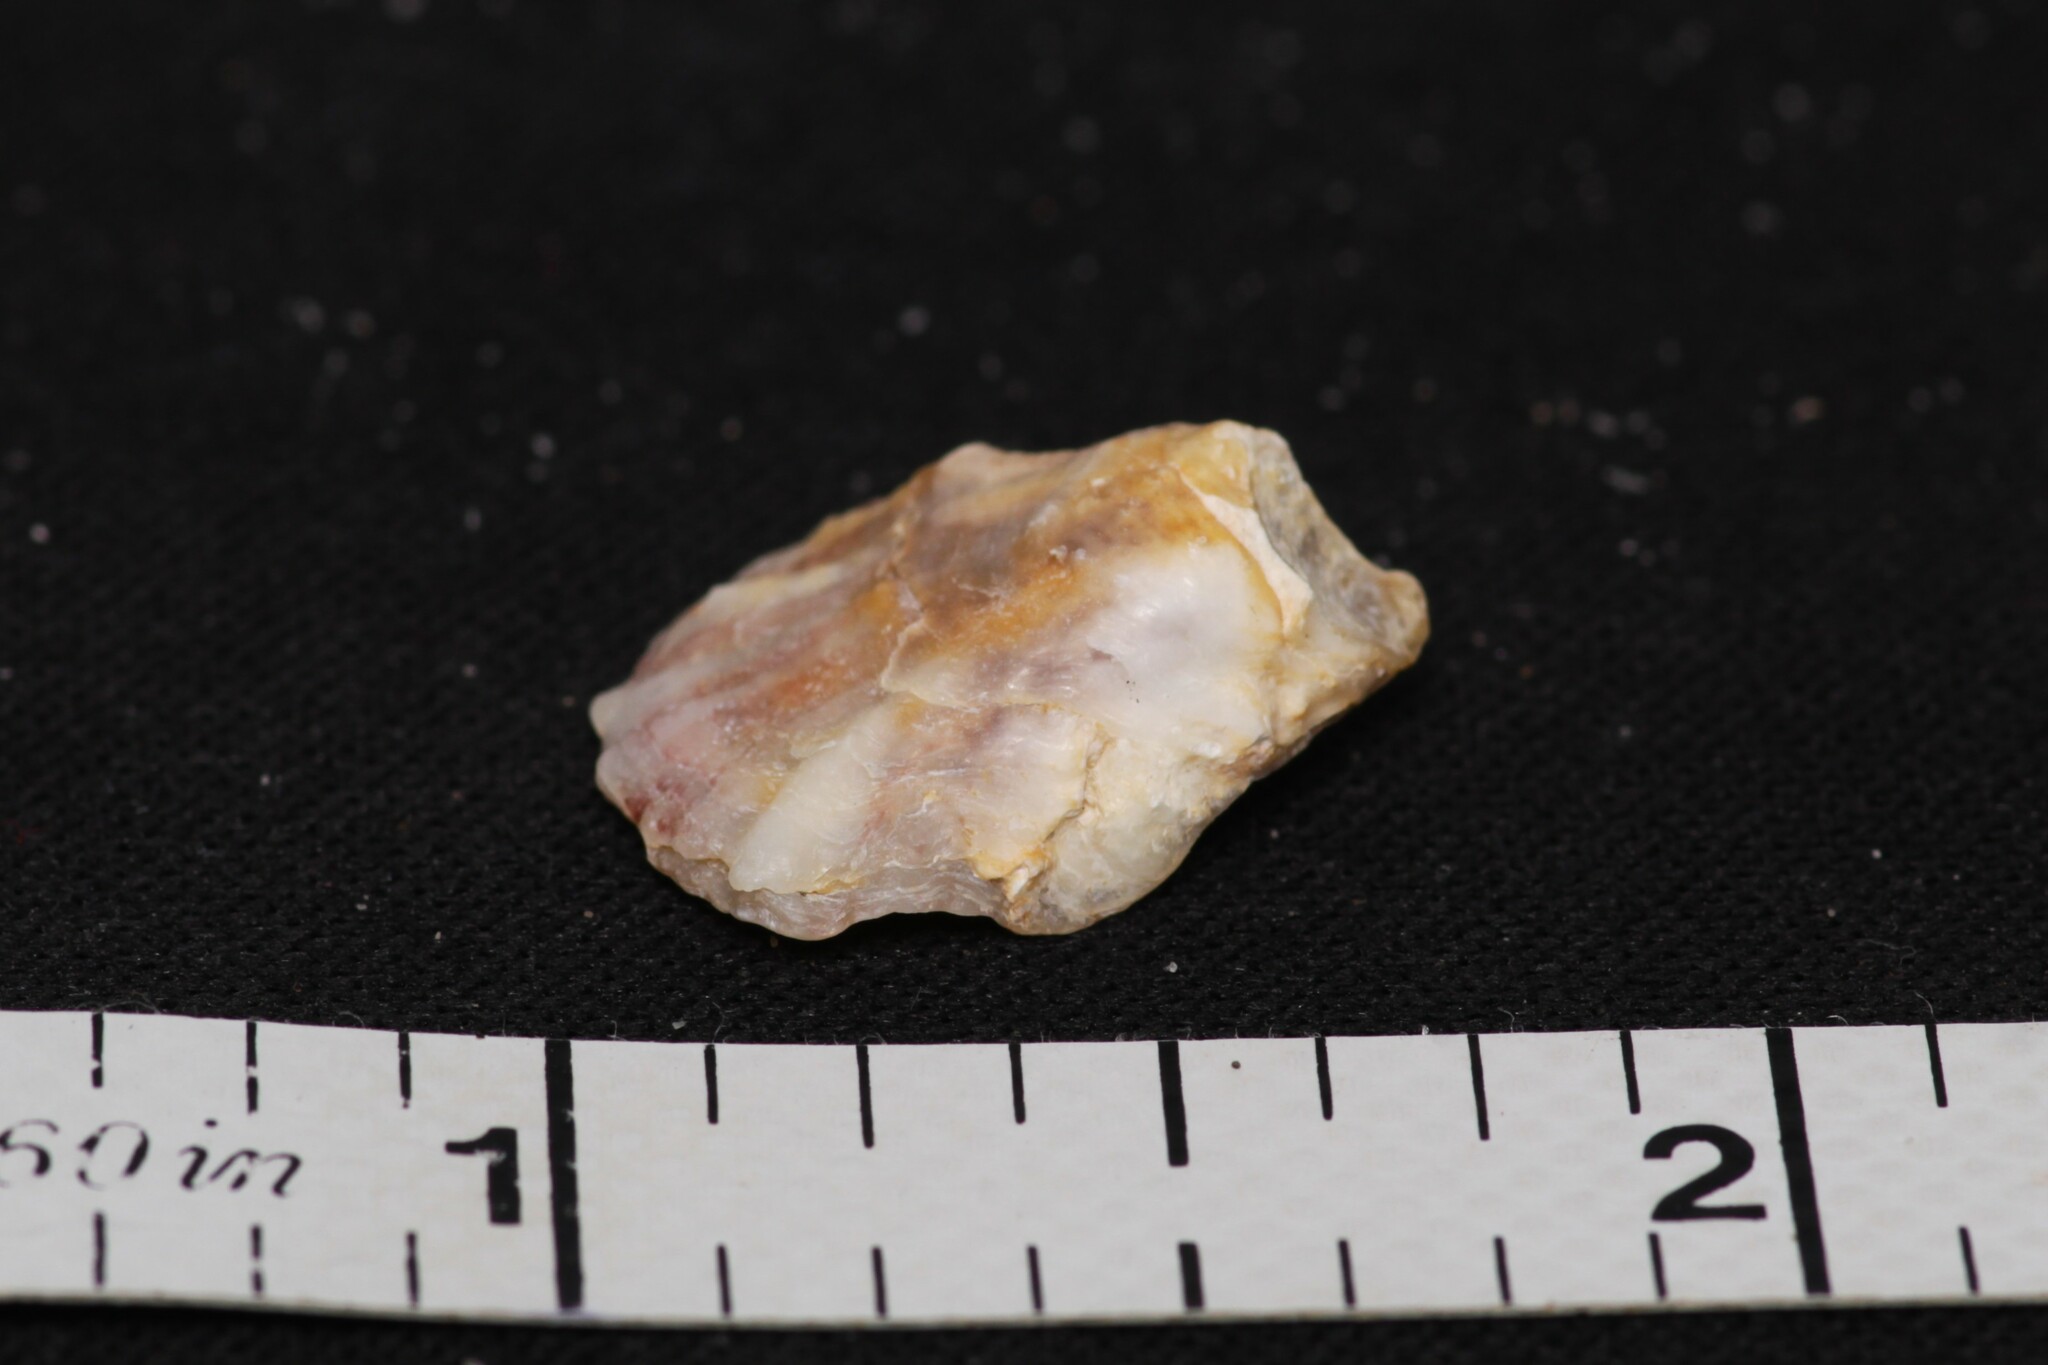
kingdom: Animalia
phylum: Mollusca
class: Bivalvia
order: Ostreida
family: Ostreidae
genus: Crassostrea
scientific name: Crassostrea virginica
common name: American oyster
